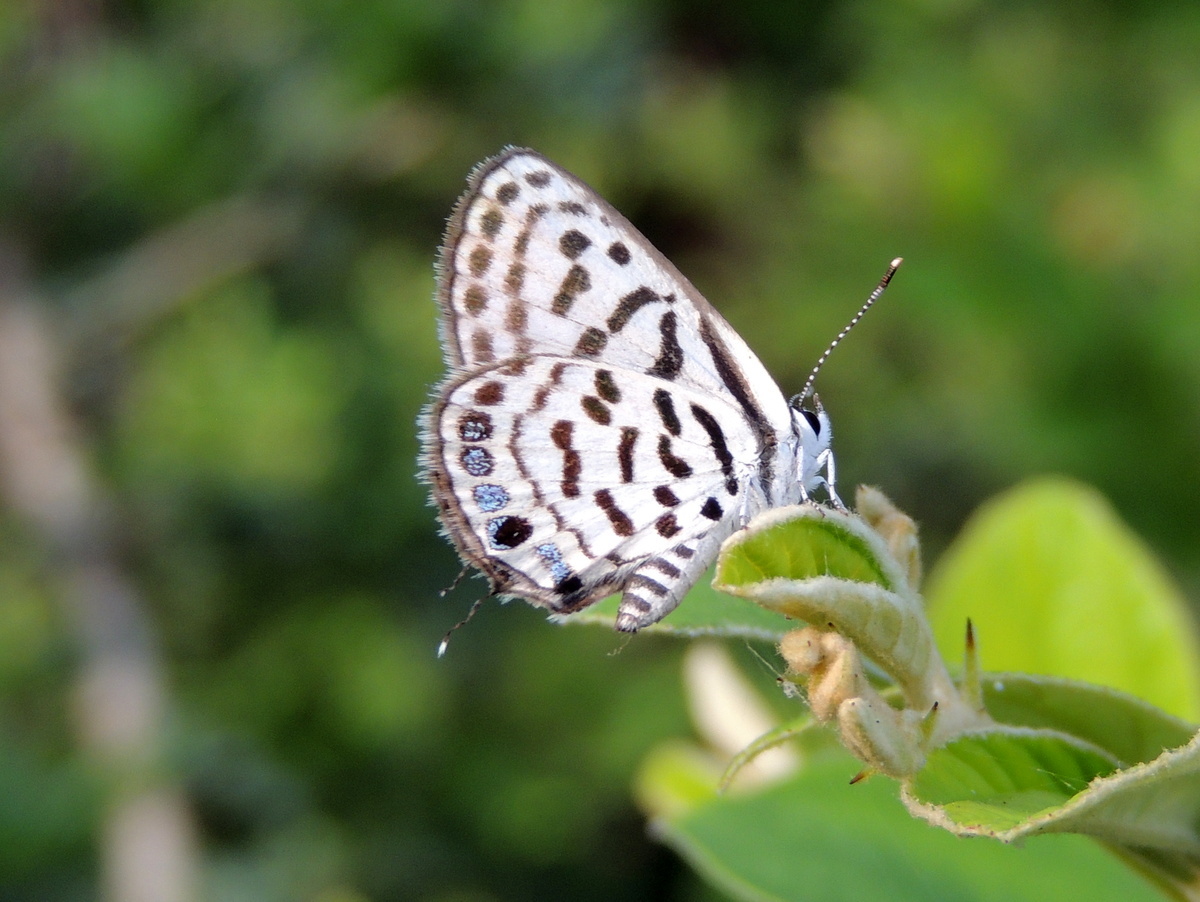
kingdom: Animalia
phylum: Arthropoda
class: Insecta
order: Lepidoptera
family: Lycaenidae
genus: Tarucus
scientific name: Tarucus
